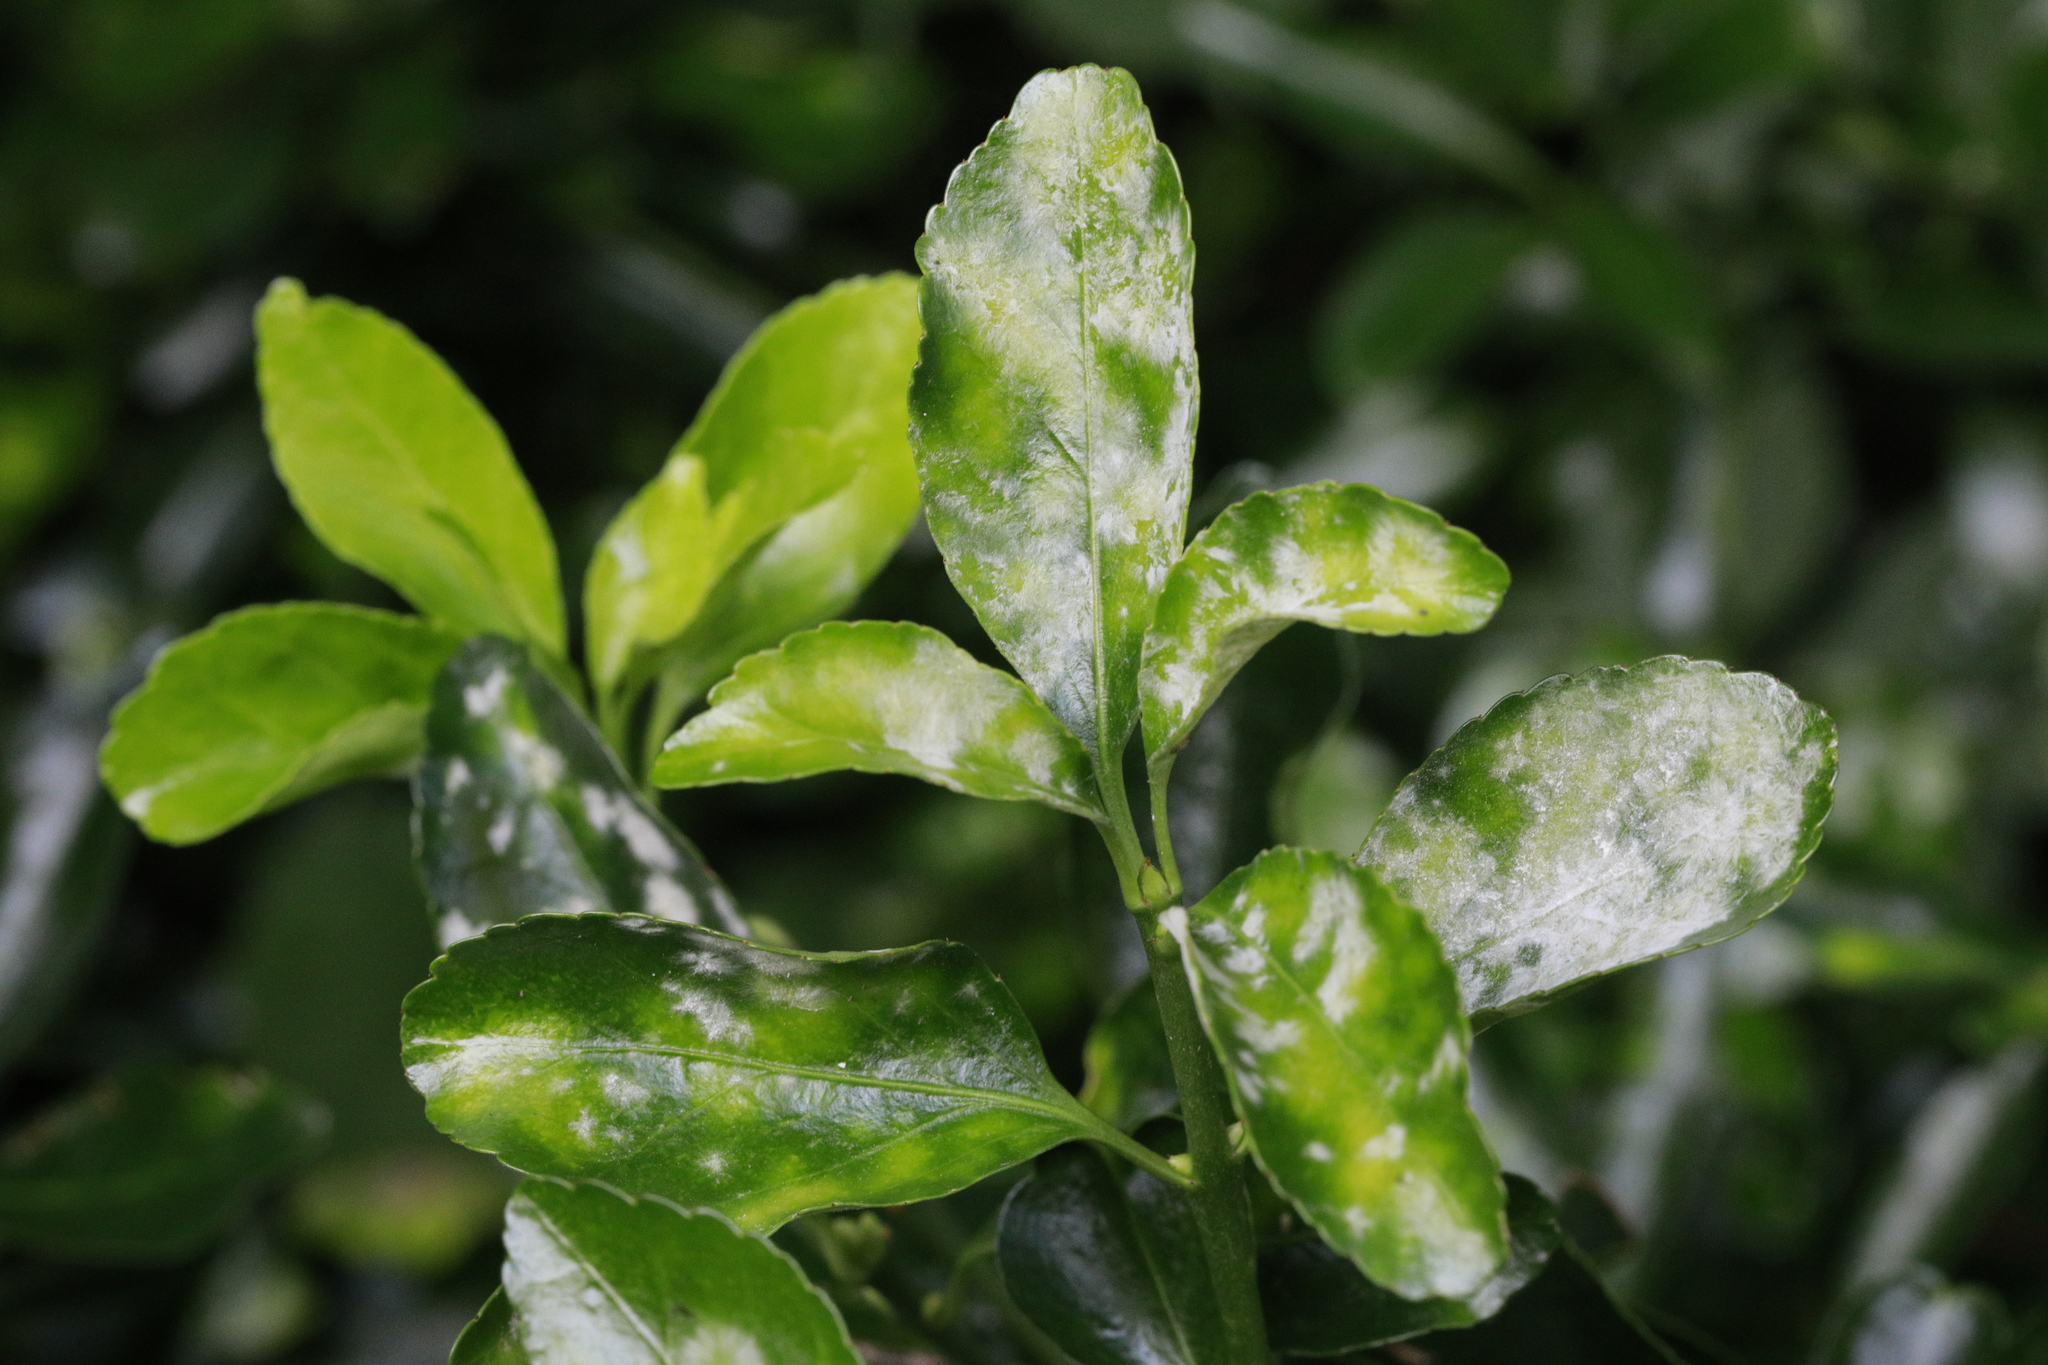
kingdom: Fungi
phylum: Ascomycota
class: Leotiomycetes
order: Helotiales
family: Erysiphaceae
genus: Erysiphe
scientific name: Erysiphe euonymicola
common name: Spindletree mildew
